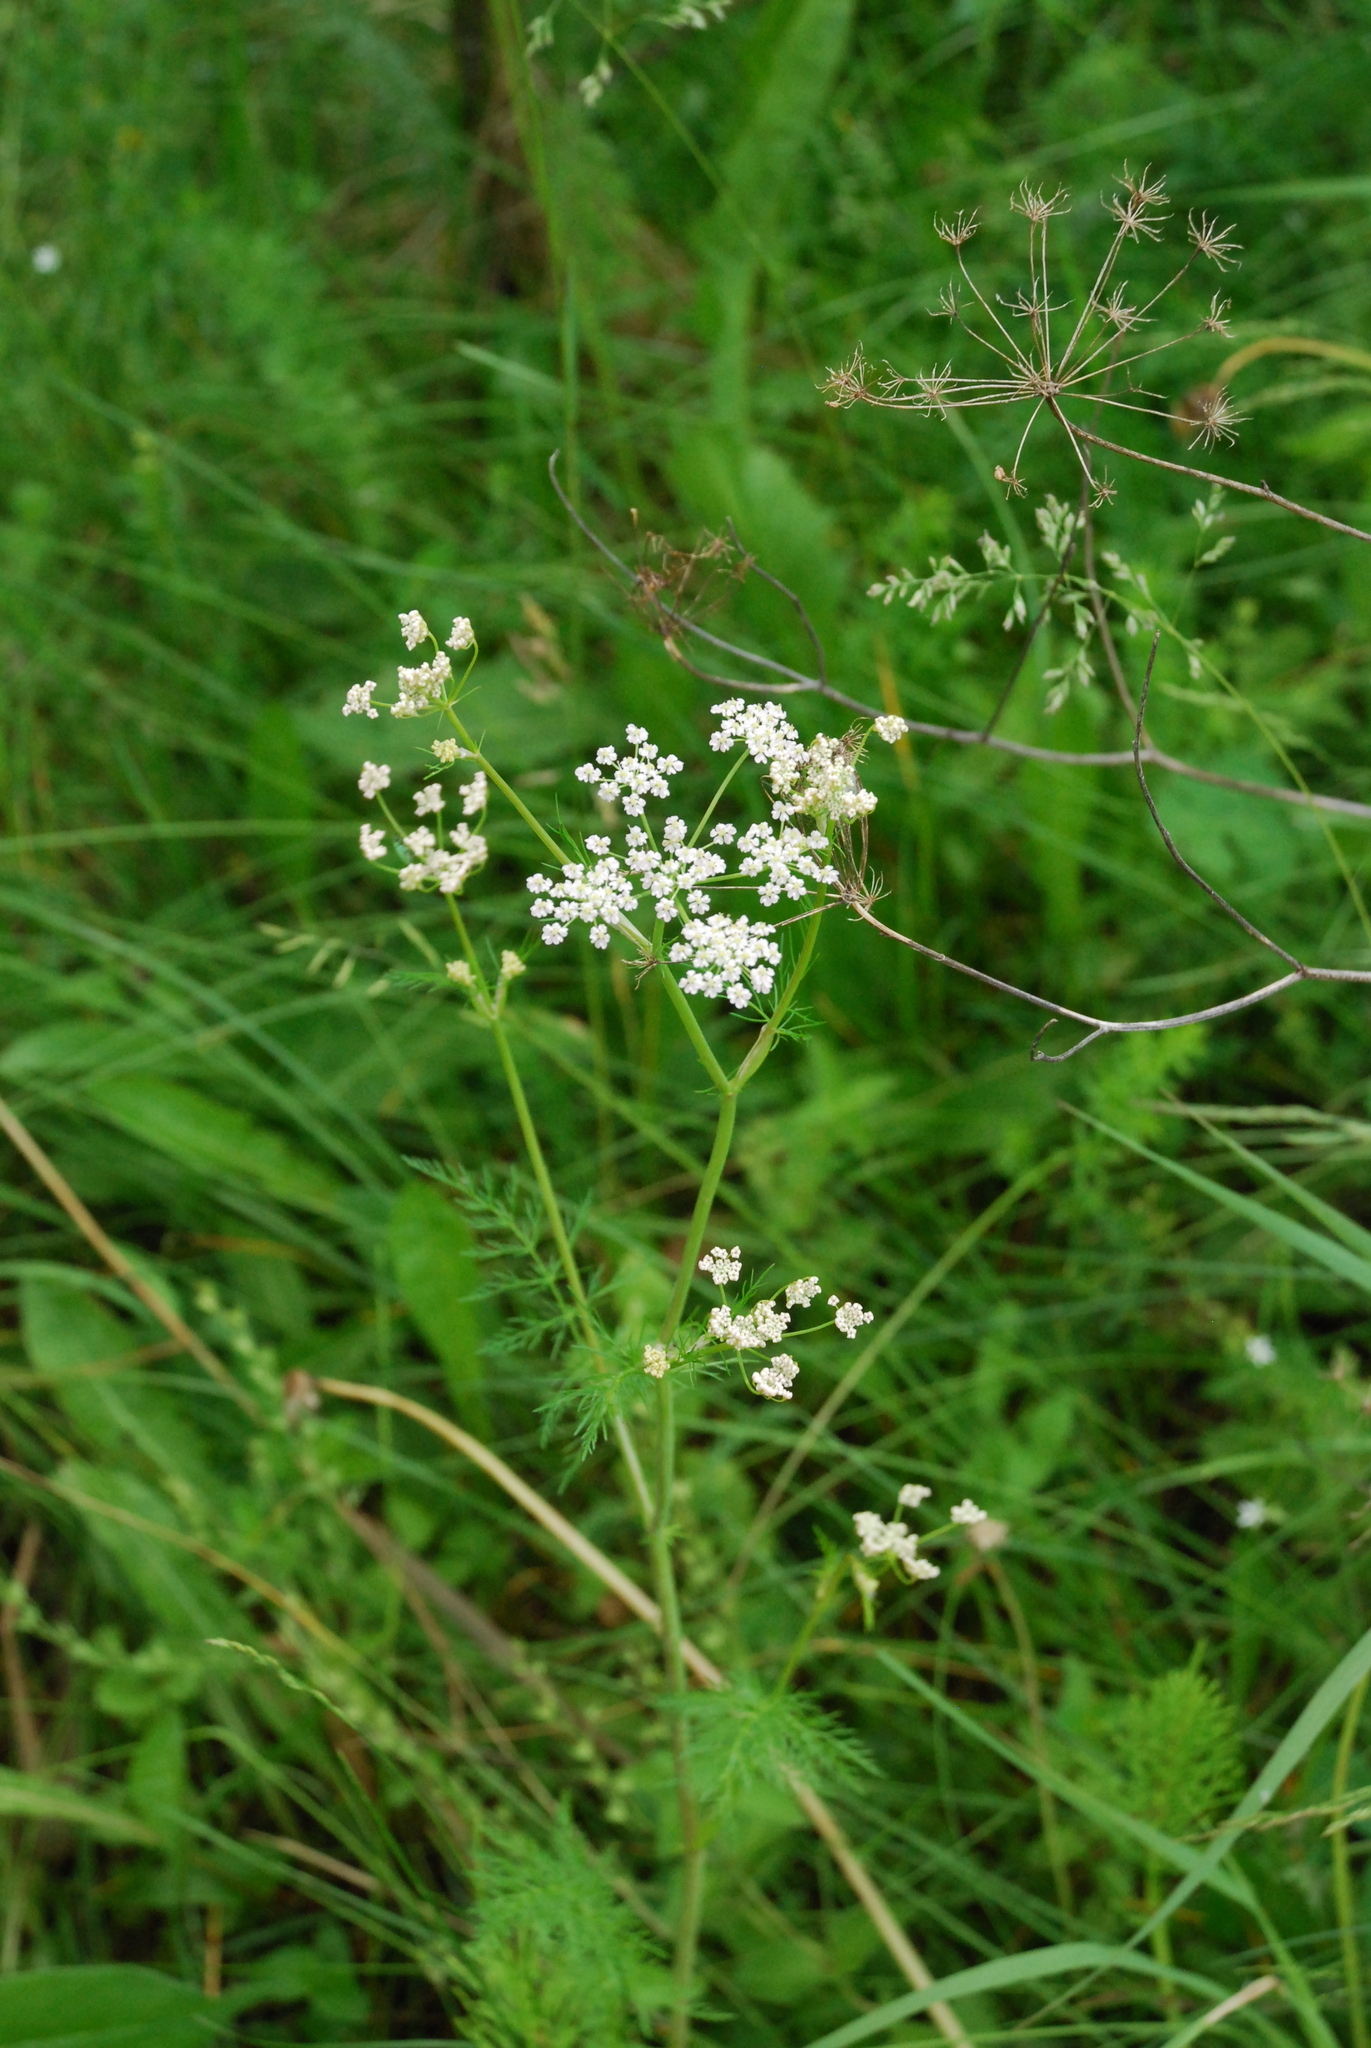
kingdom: Plantae
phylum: Tracheophyta
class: Magnoliopsida
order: Apiales
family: Apiaceae
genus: Carum
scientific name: Carum carvi
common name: Caraway
